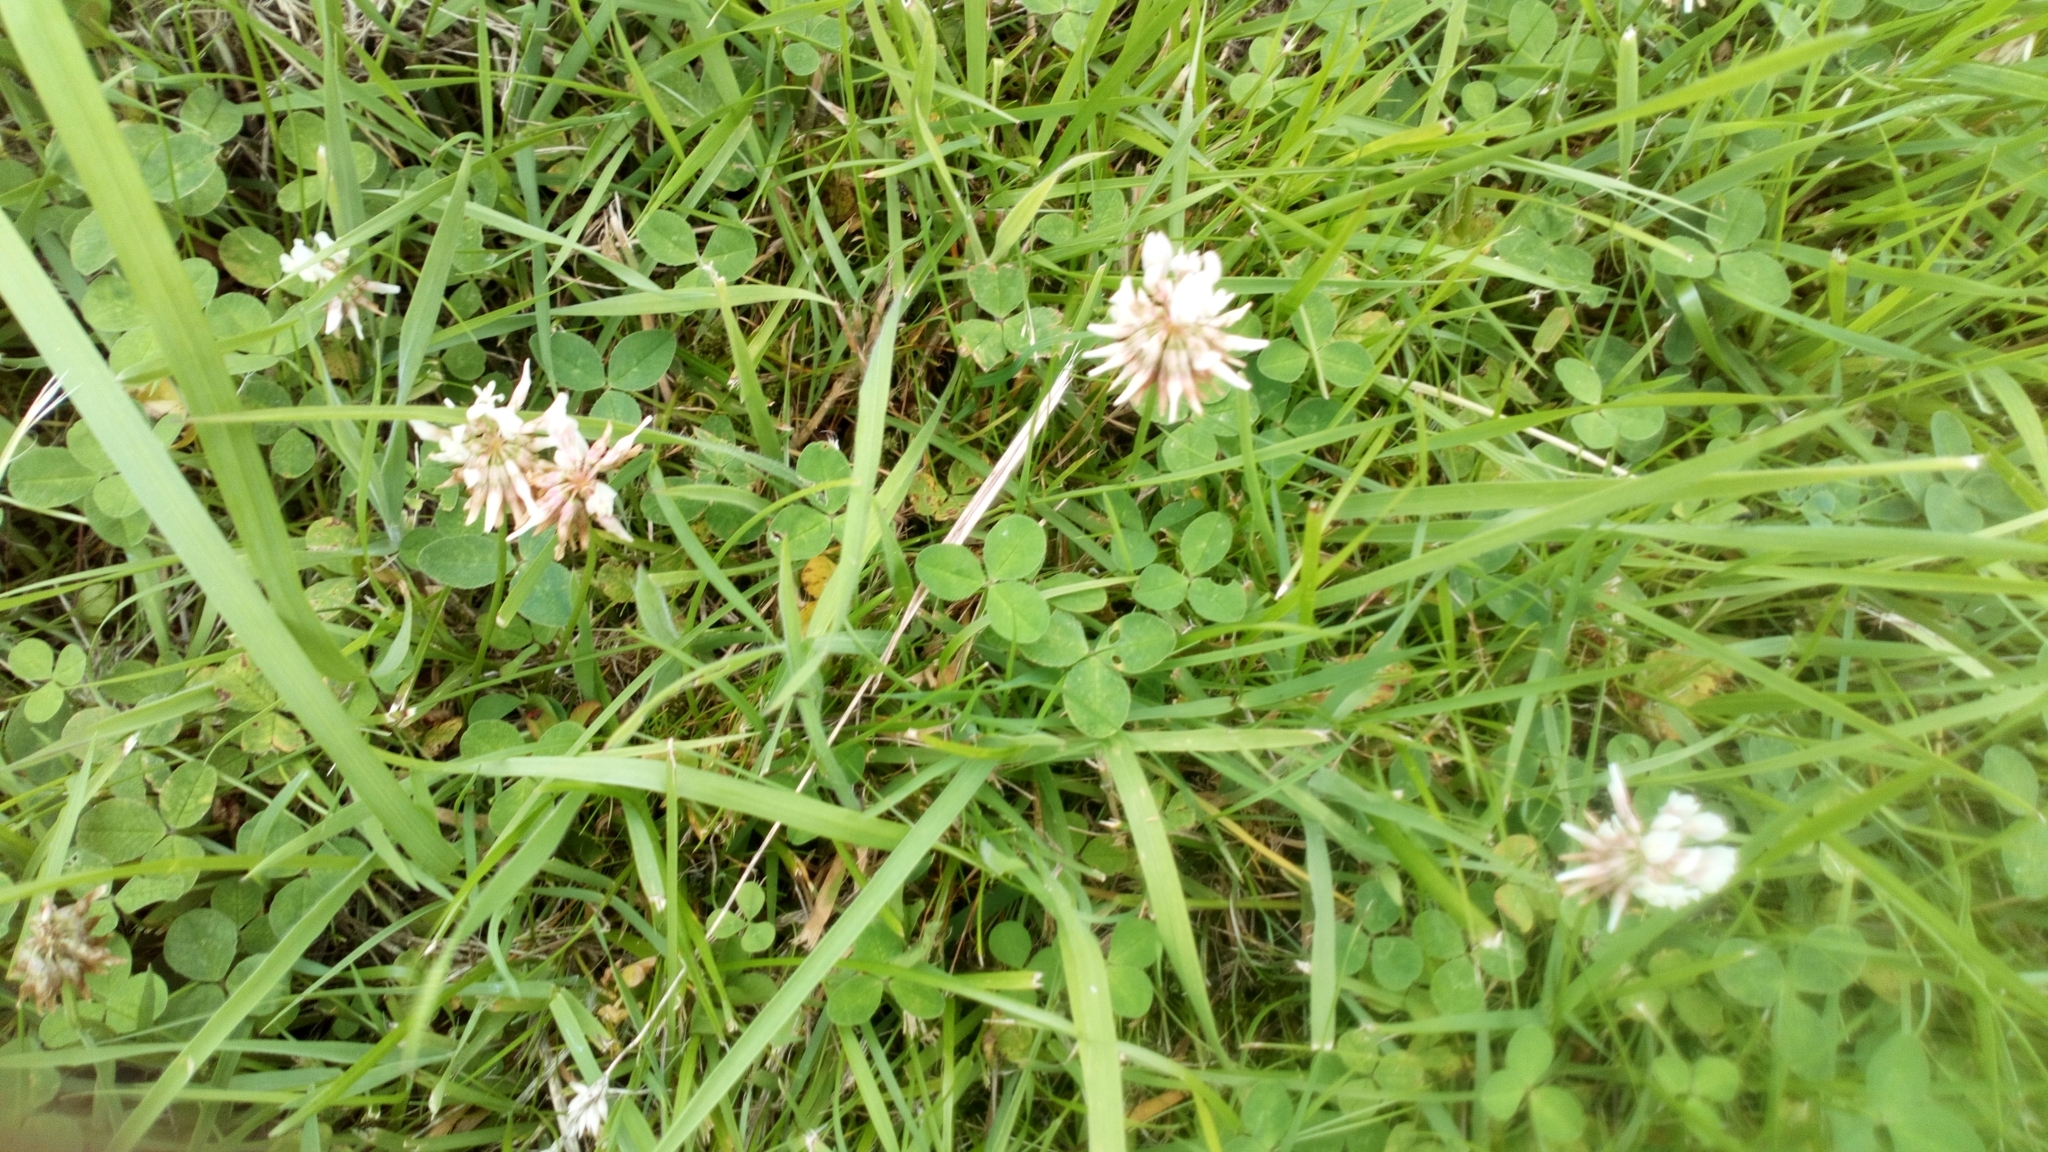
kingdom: Plantae
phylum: Tracheophyta
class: Magnoliopsida
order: Fabales
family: Fabaceae
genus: Trifolium
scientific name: Trifolium repens
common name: White clover
